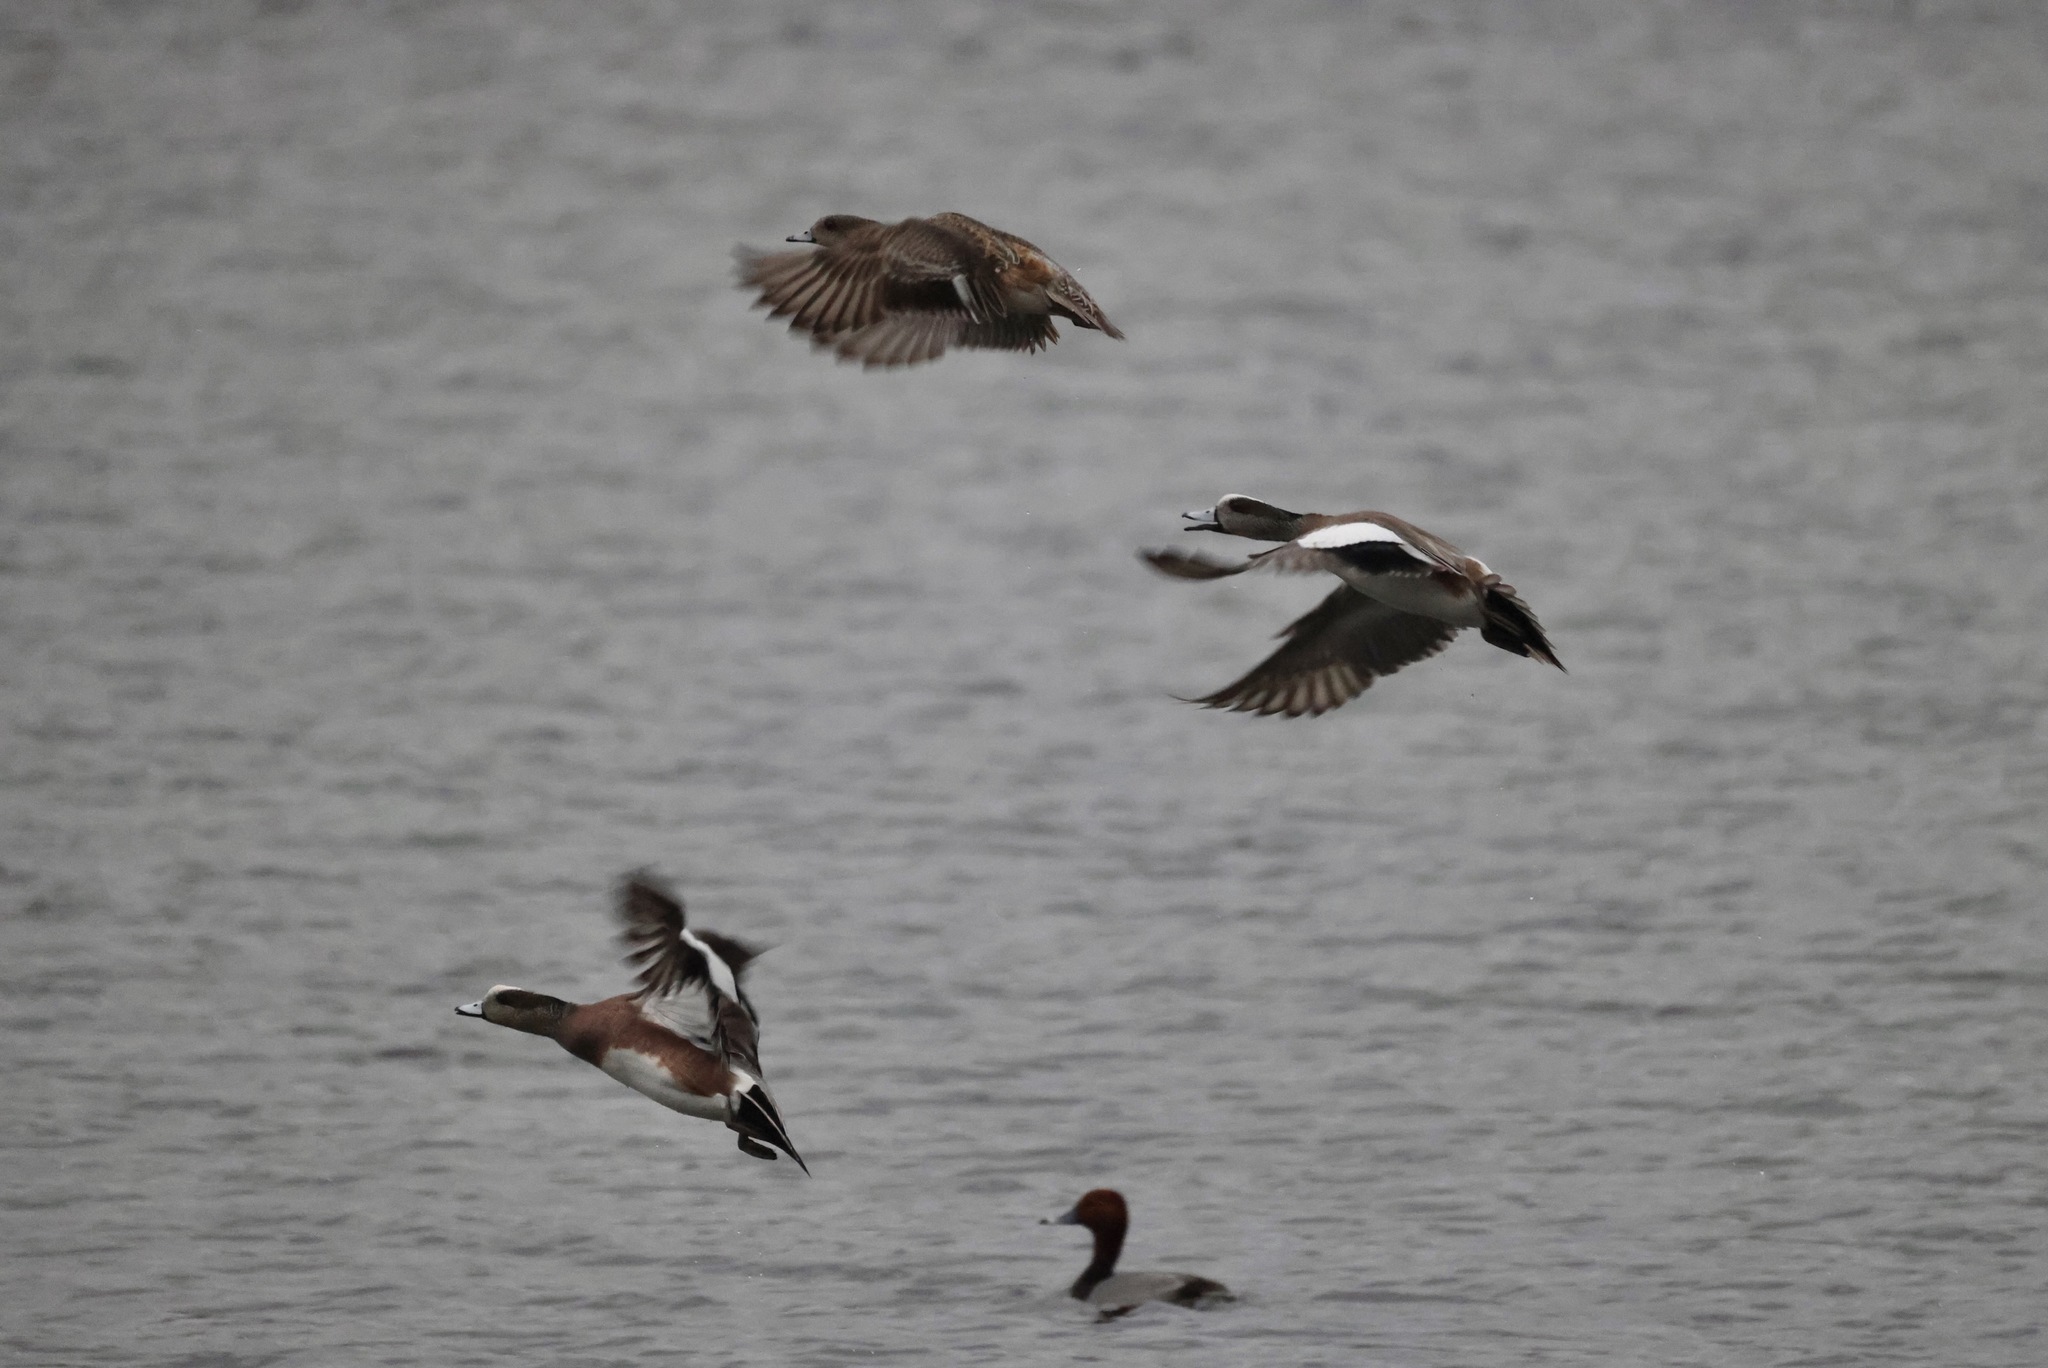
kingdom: Animalia
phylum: Chordata
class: Aves
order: Anseriformes
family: Anatidae
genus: Mareca
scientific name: Mareca americana
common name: American wigeon
